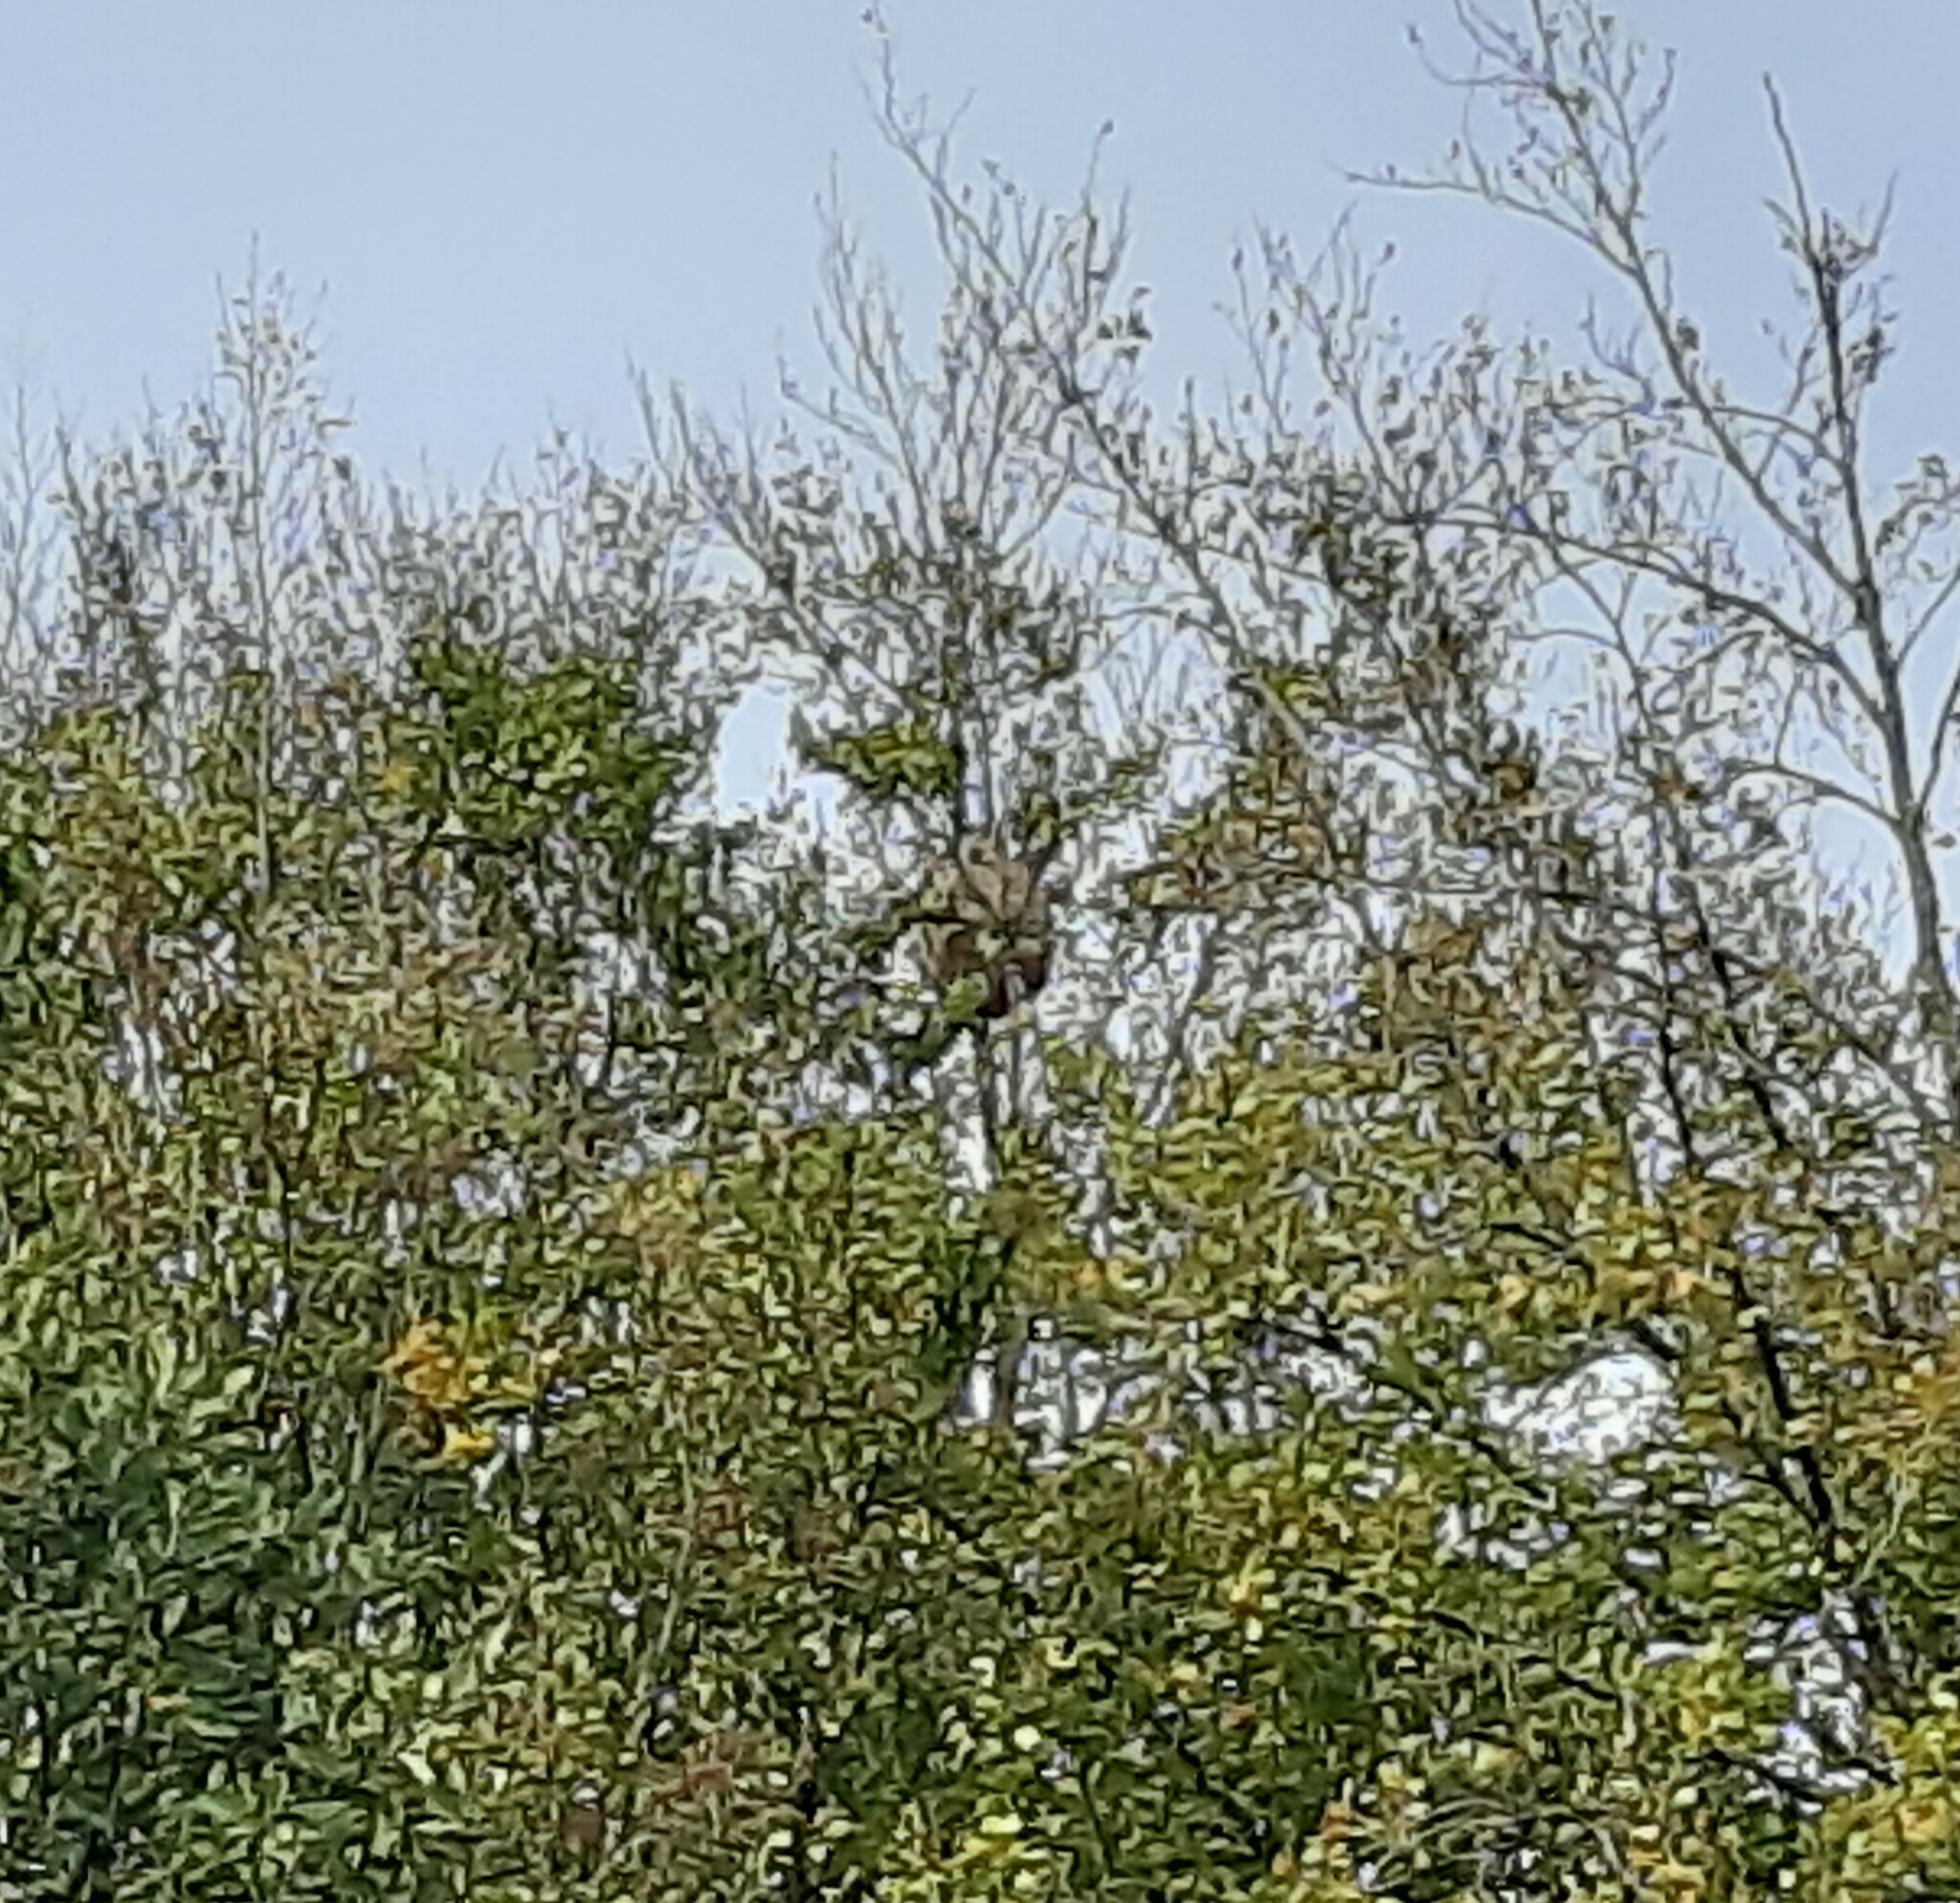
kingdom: Animalia
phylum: Arthropoda
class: Insecta
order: Hymenoptera
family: Vespidae
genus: Vespa
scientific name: Vespa velutina
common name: Asian hornet
